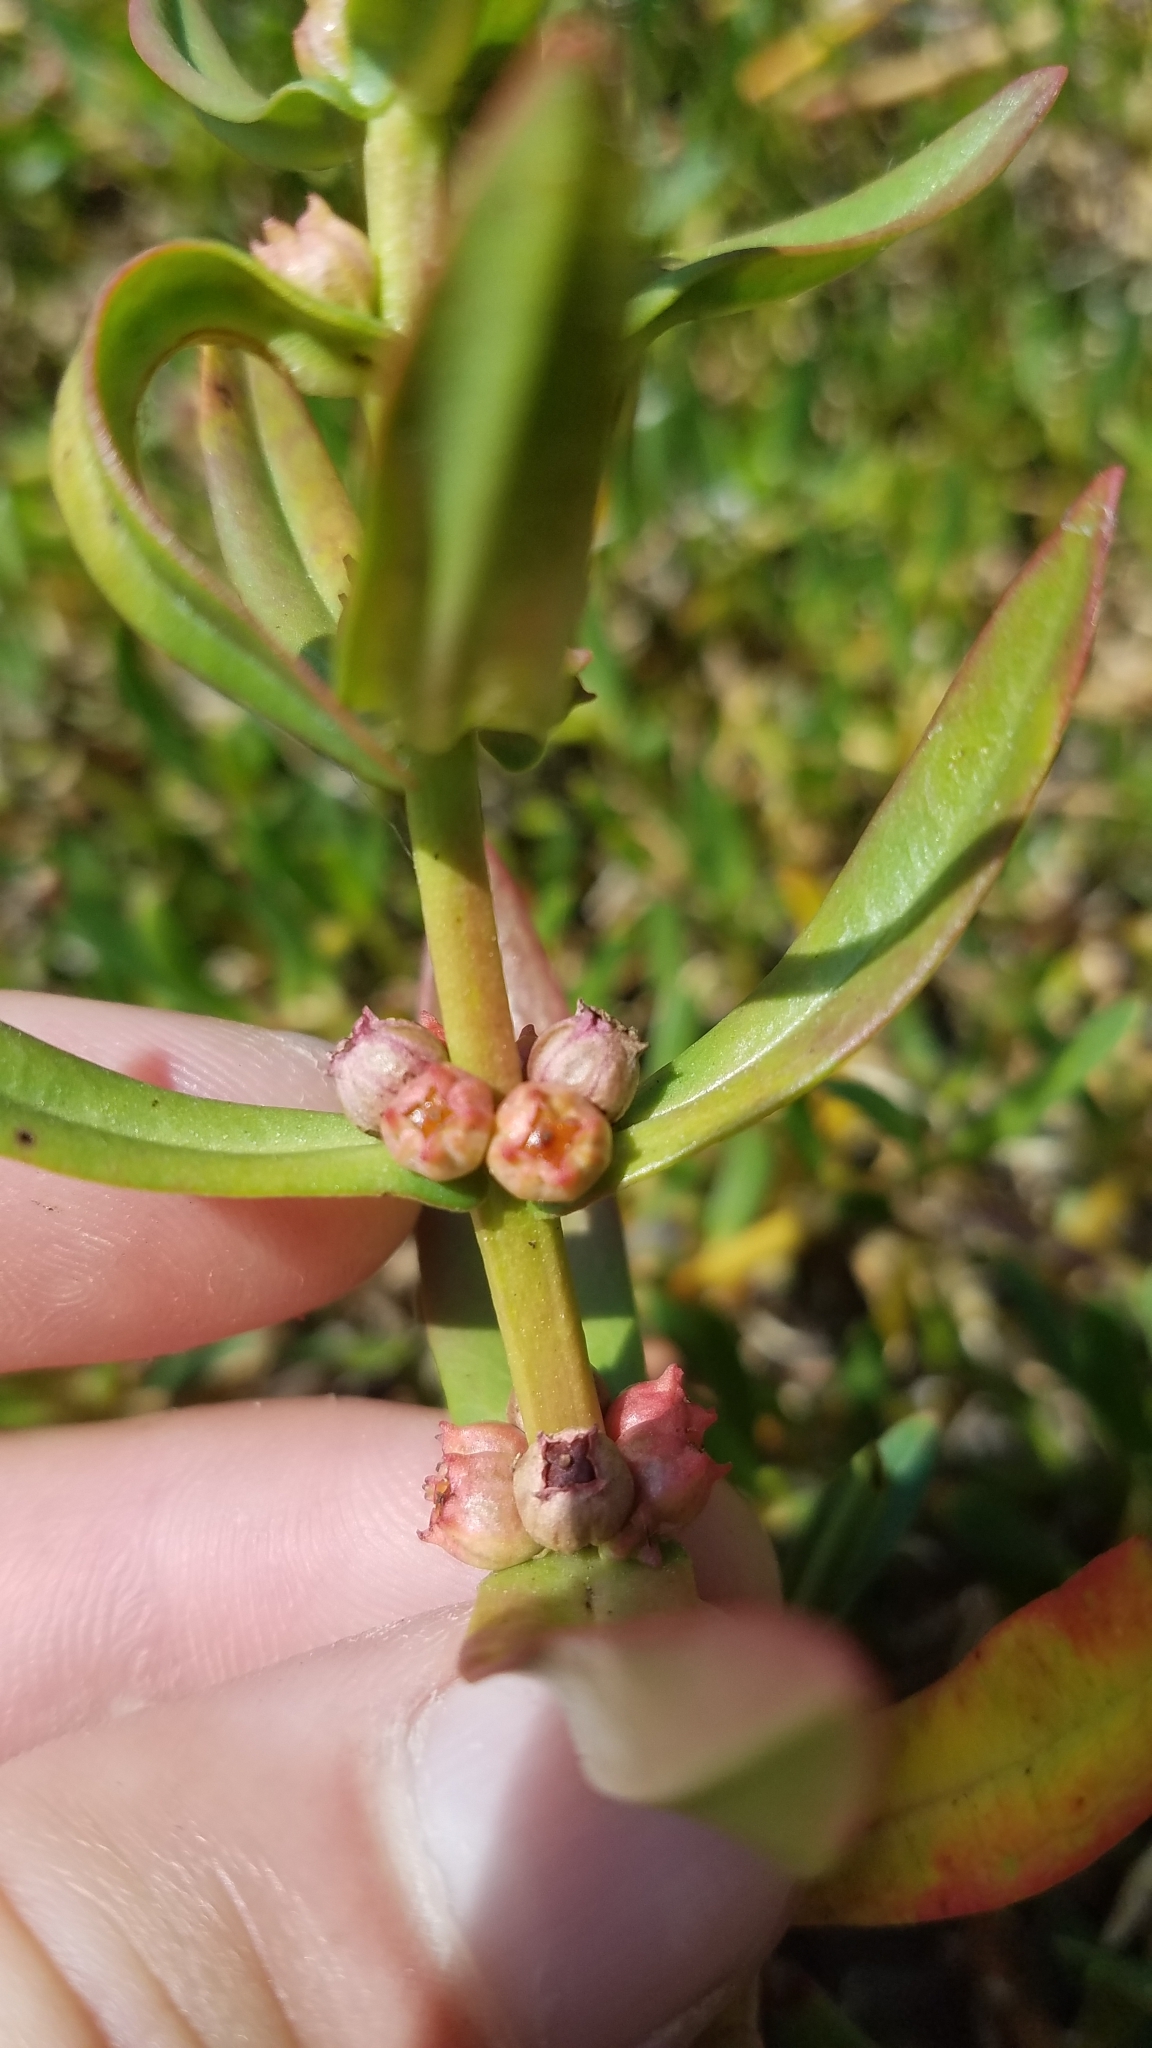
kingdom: Plantae
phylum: Tracheophyta
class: Magnoliopsida
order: Myrtales
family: Lythraceae
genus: Ammannia
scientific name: Ammannia coccinea
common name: Valley redstem
